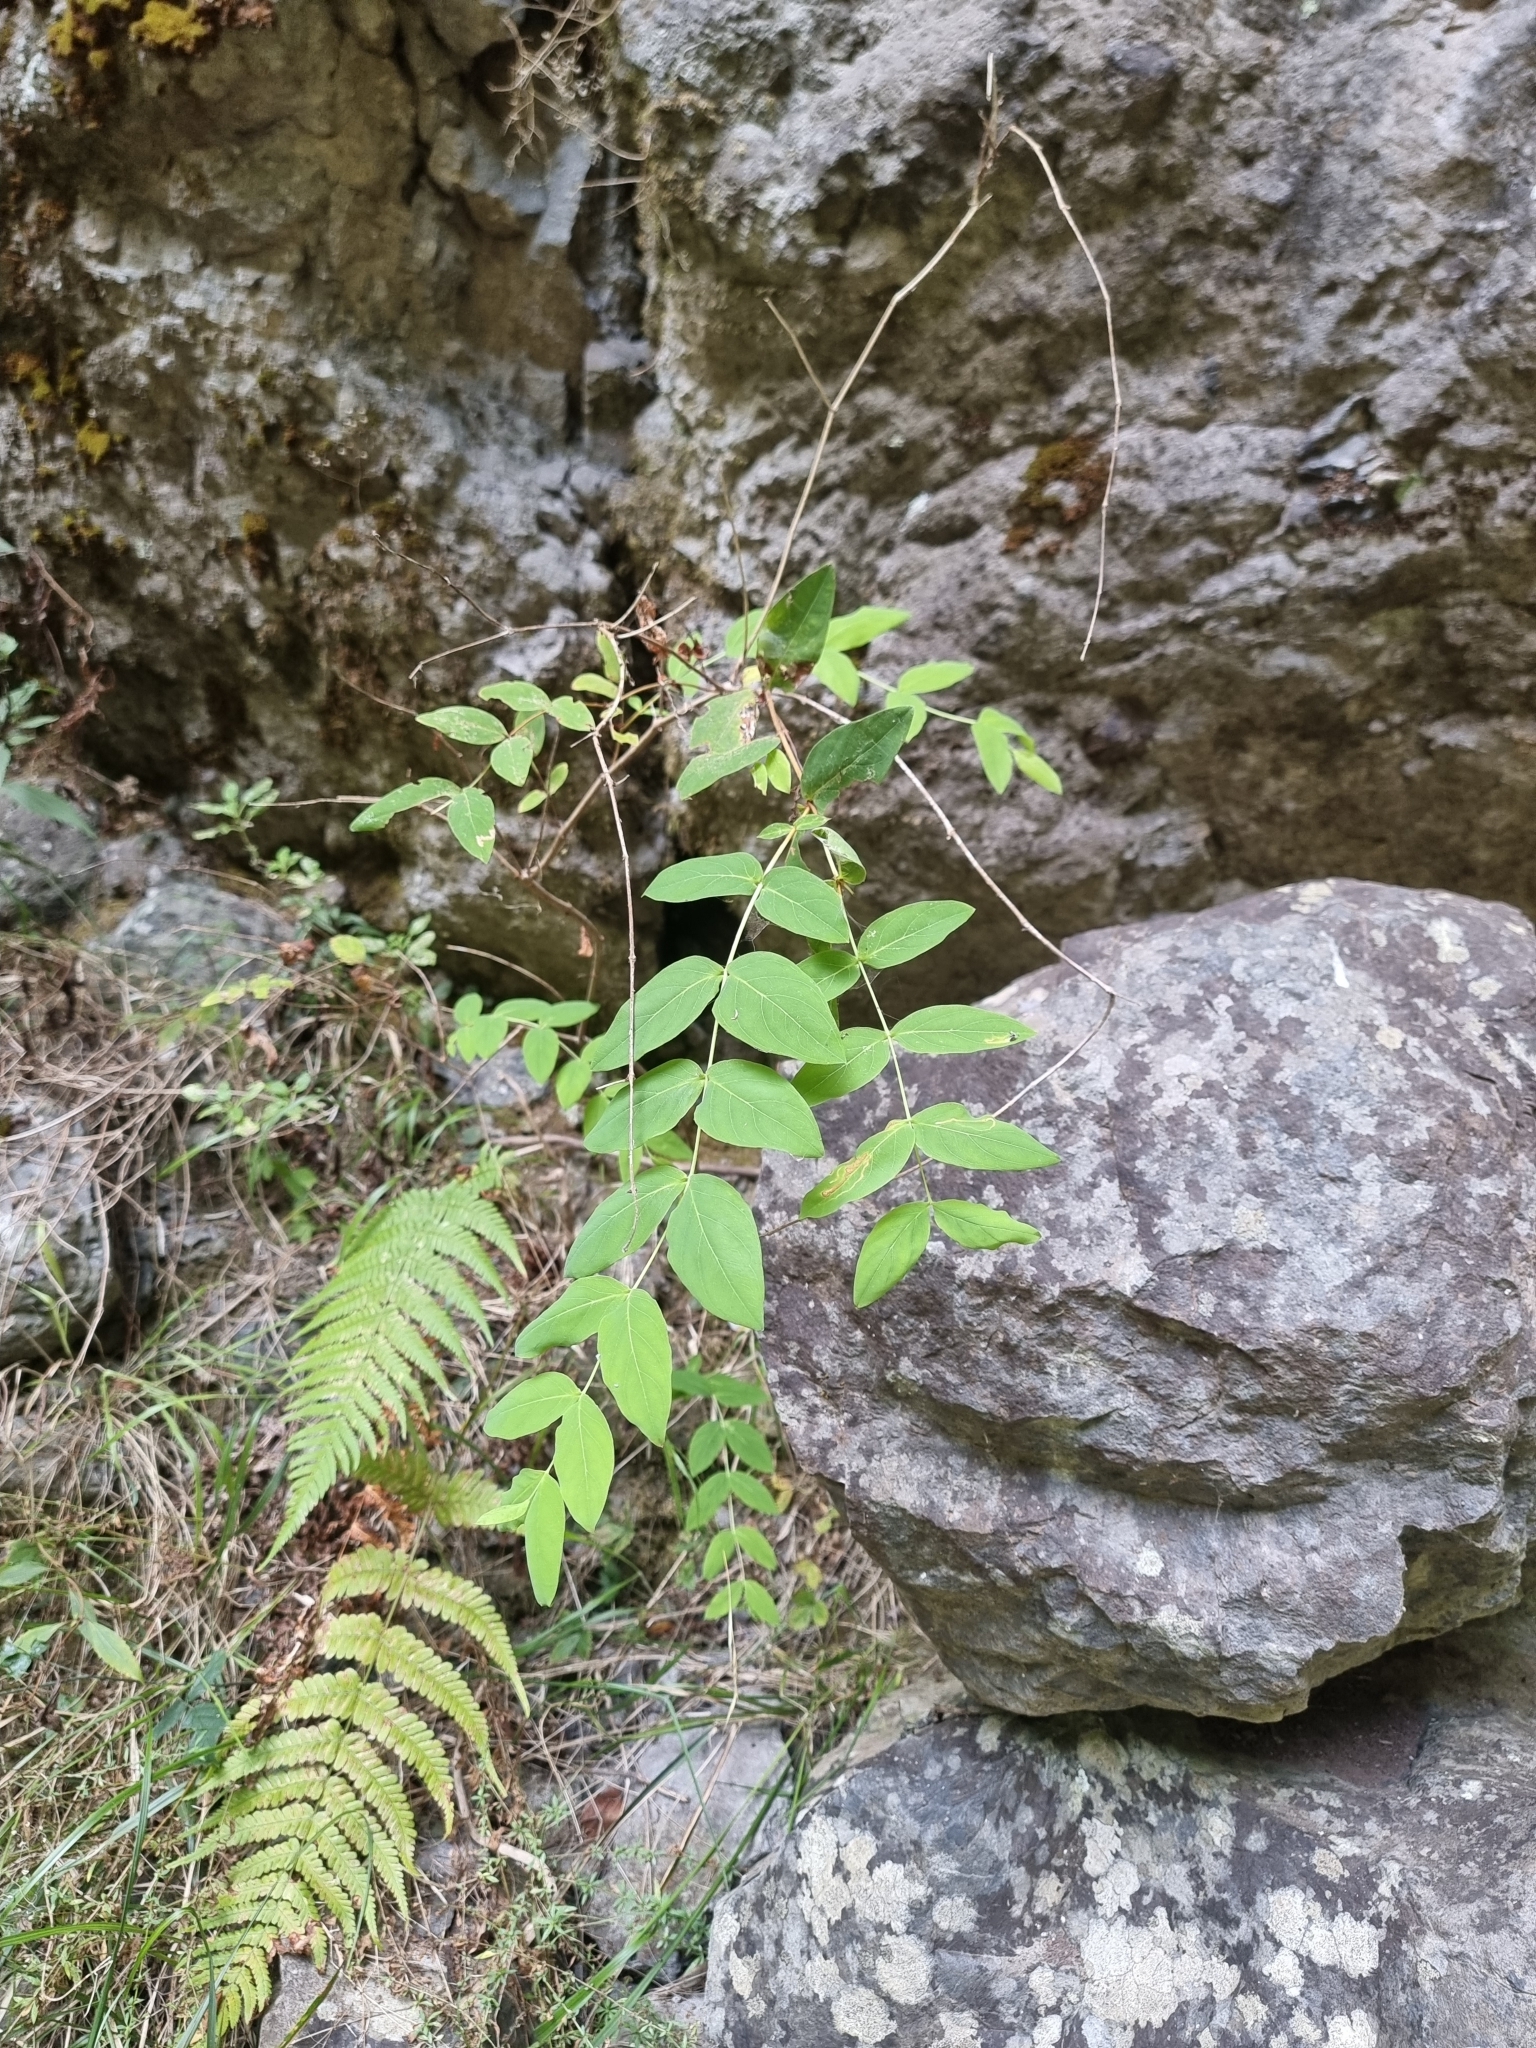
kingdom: Plantae
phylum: Tracheophyta
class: Magnoliopsida
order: Malpighiales
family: Hypericaceae
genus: Hypericum
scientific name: Hypericum grandifolium
